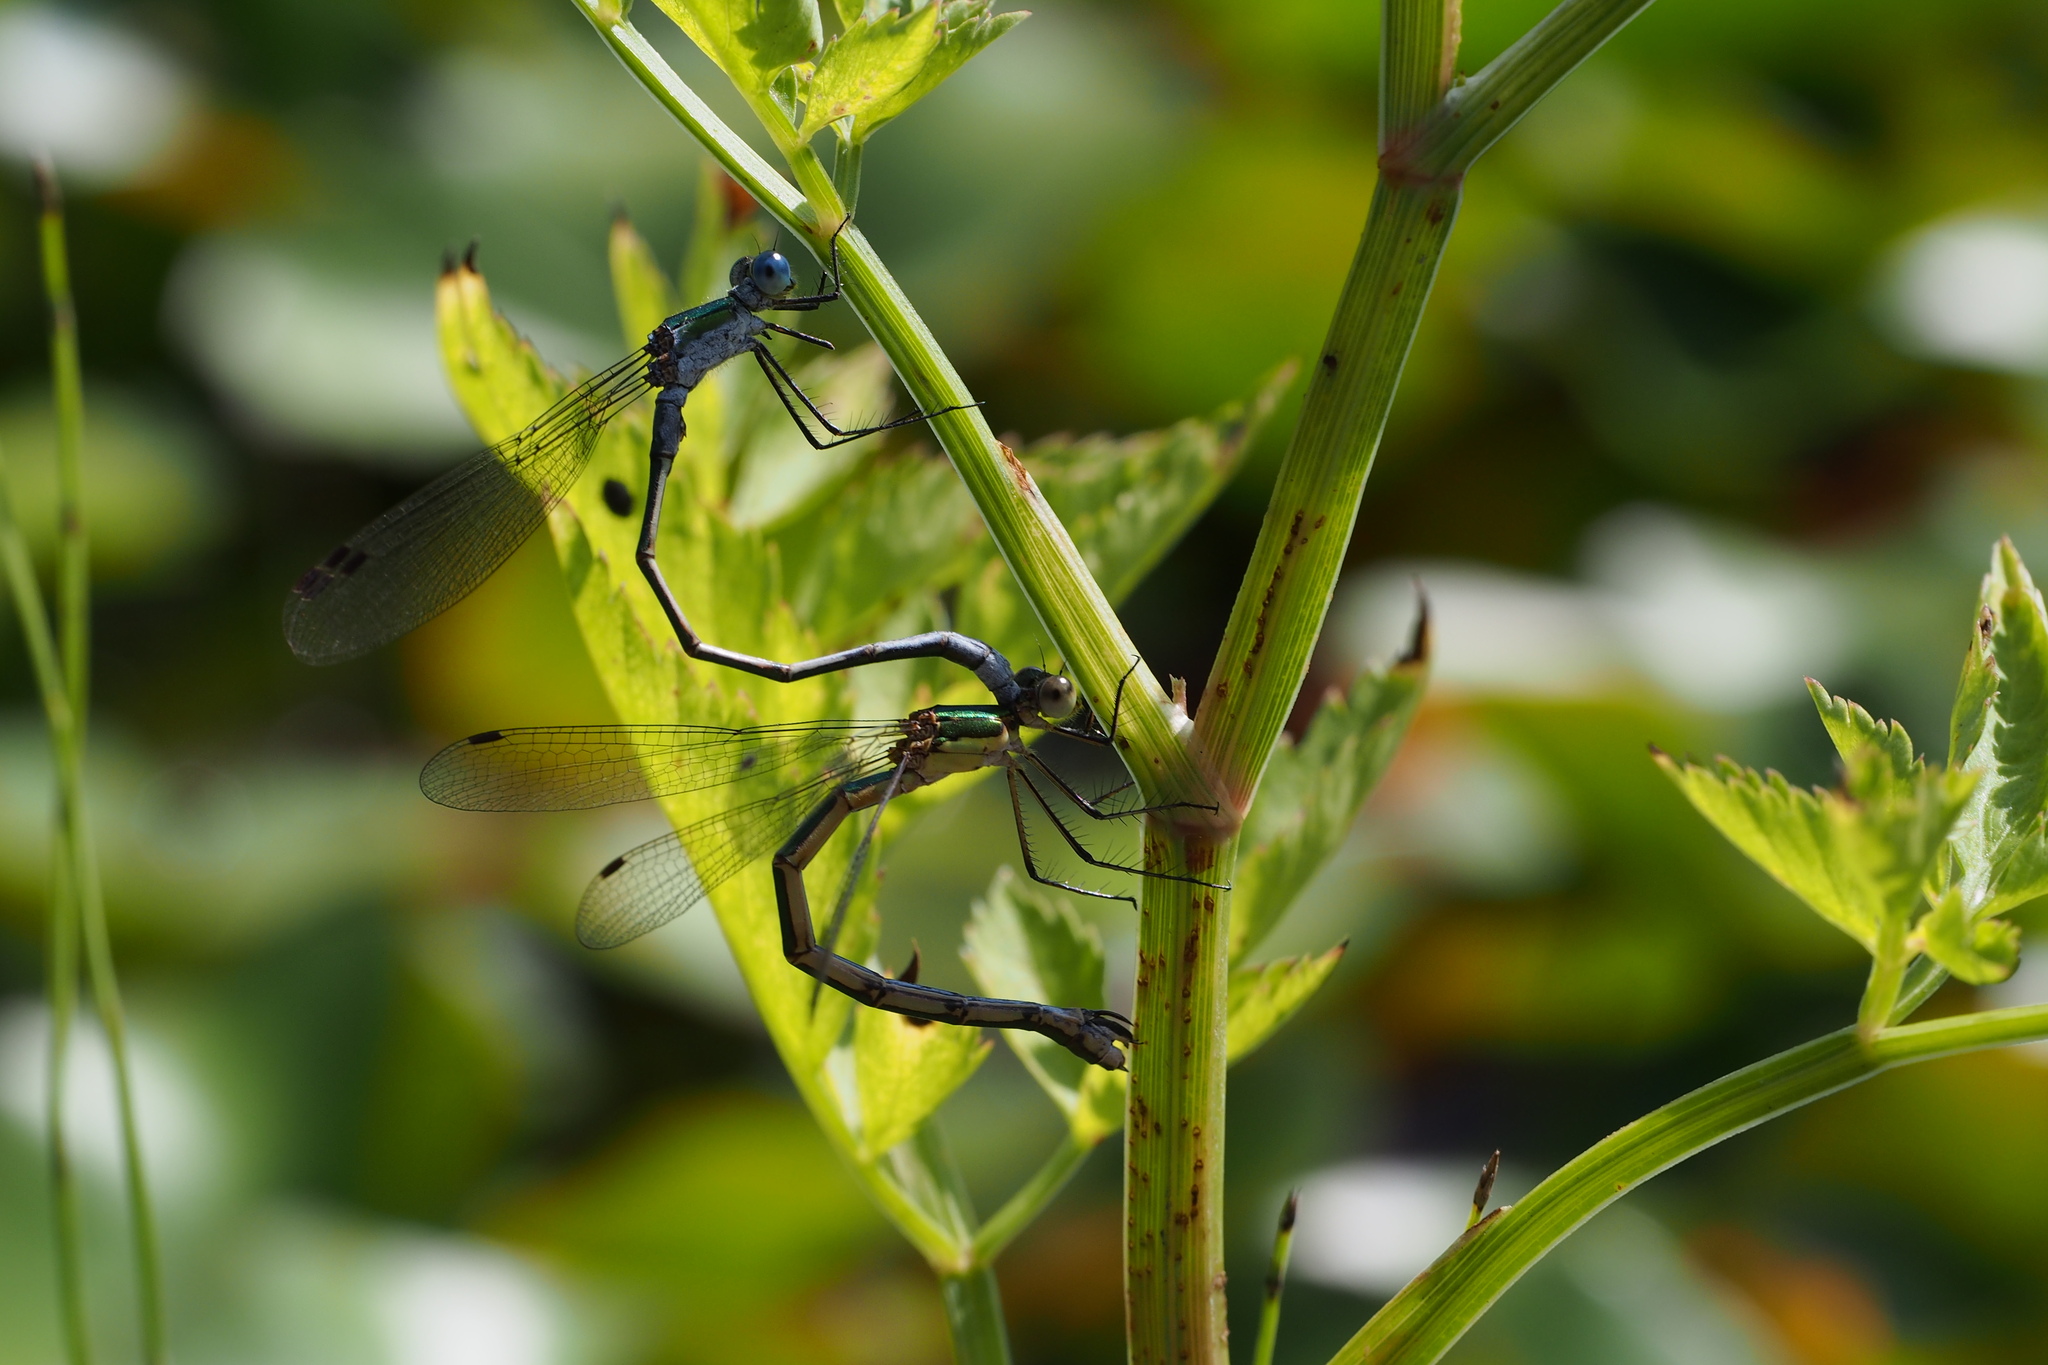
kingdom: Animalia
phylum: Arthropoda
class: Insecta
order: Odonata
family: Lestidae
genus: Lestes
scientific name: Lestes sponsa
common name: Common spreadwing
